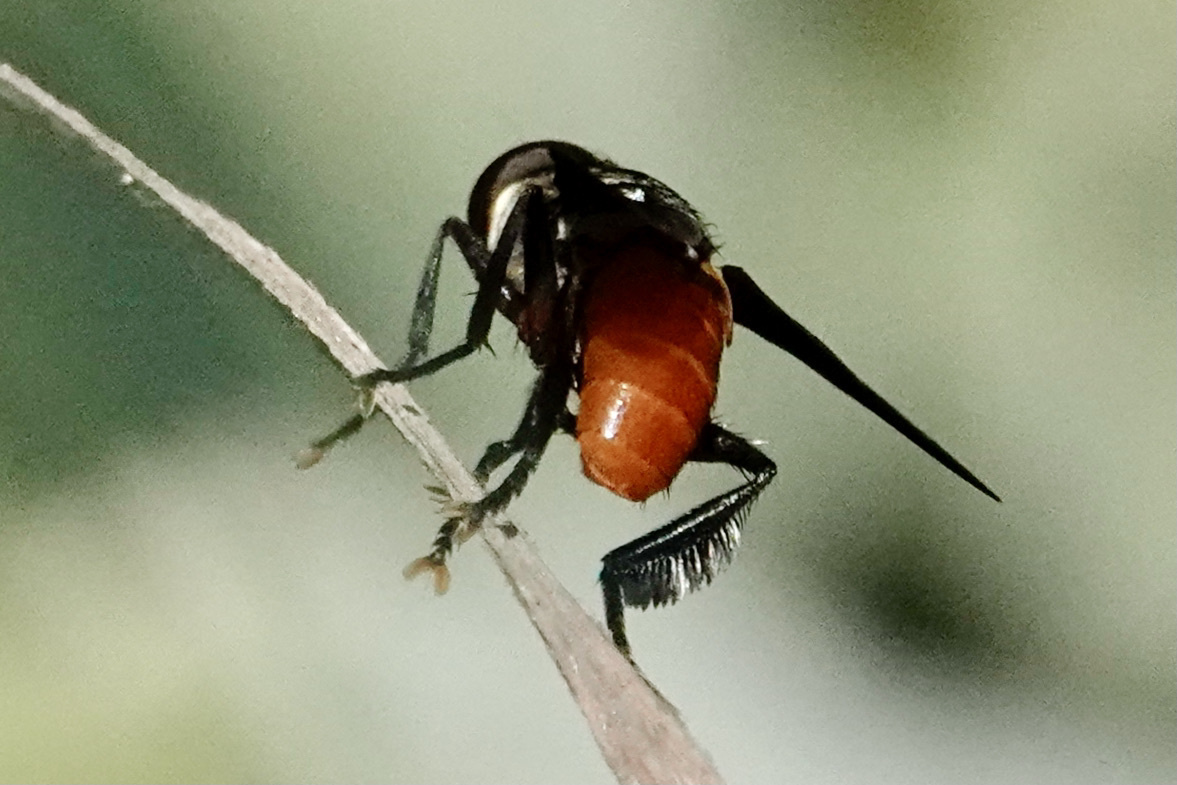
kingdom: Animalia
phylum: Arthropoda
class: Insecta
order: Diptera
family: Tachinidae
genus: Trichopoda
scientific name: Trichopoda pennipes
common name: Tachinid fly
